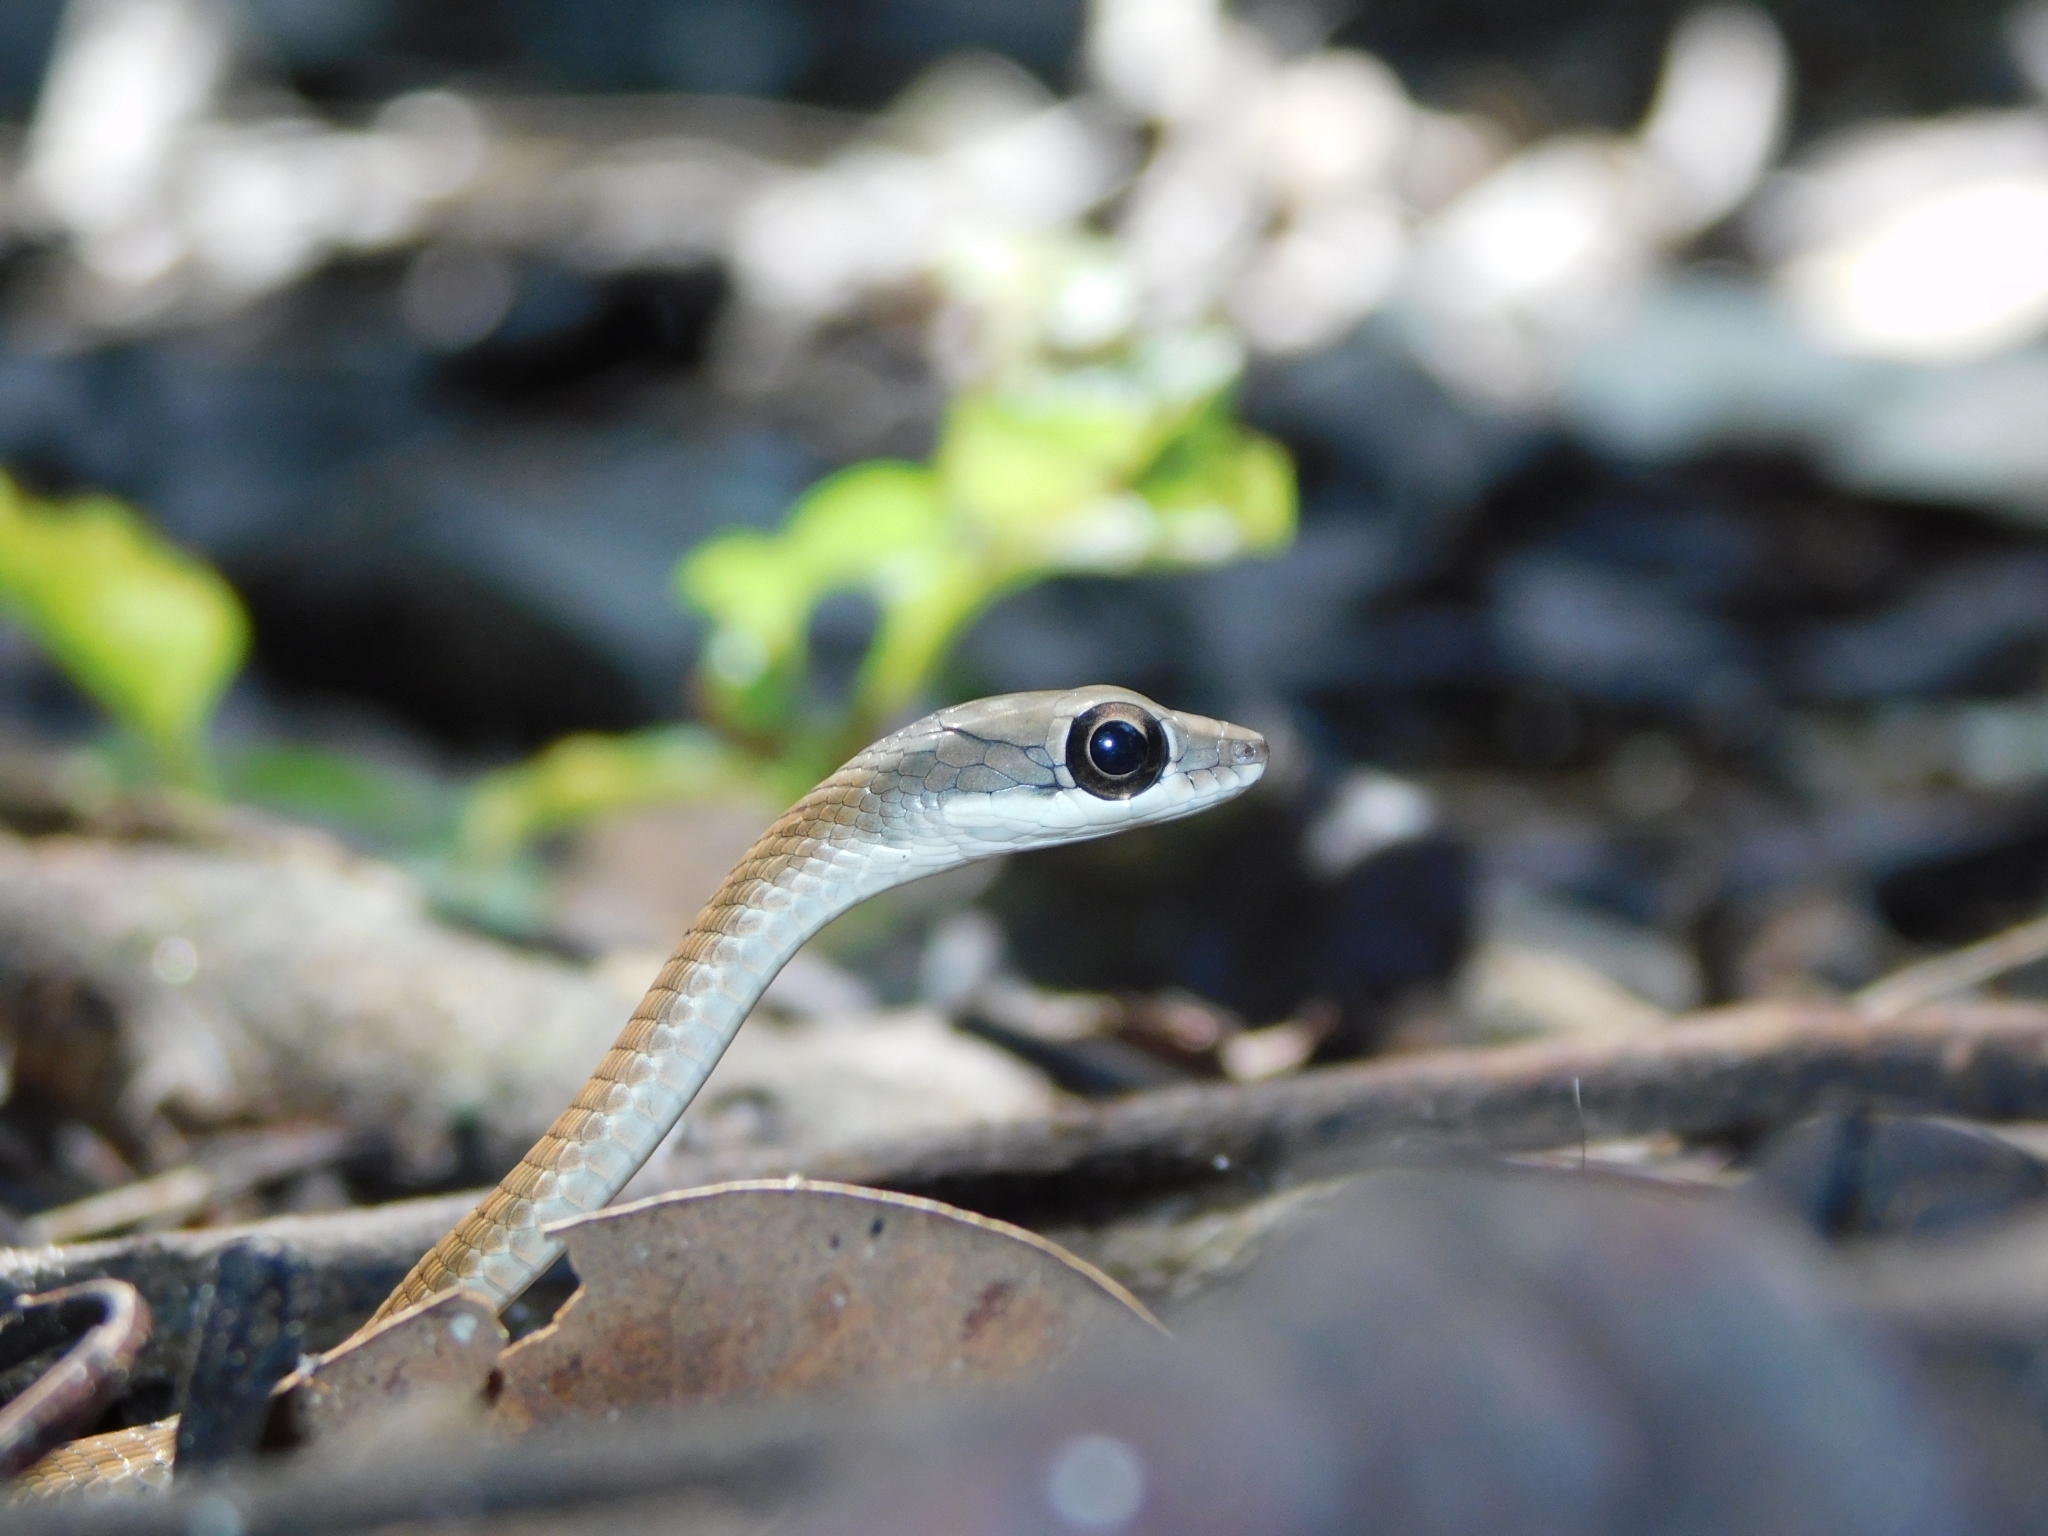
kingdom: Animalia
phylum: Chordata
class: Squamata
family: Colubridae
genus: Dendrelaphis
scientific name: Dendrelaphis grandoculis
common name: Southern bronzeback
